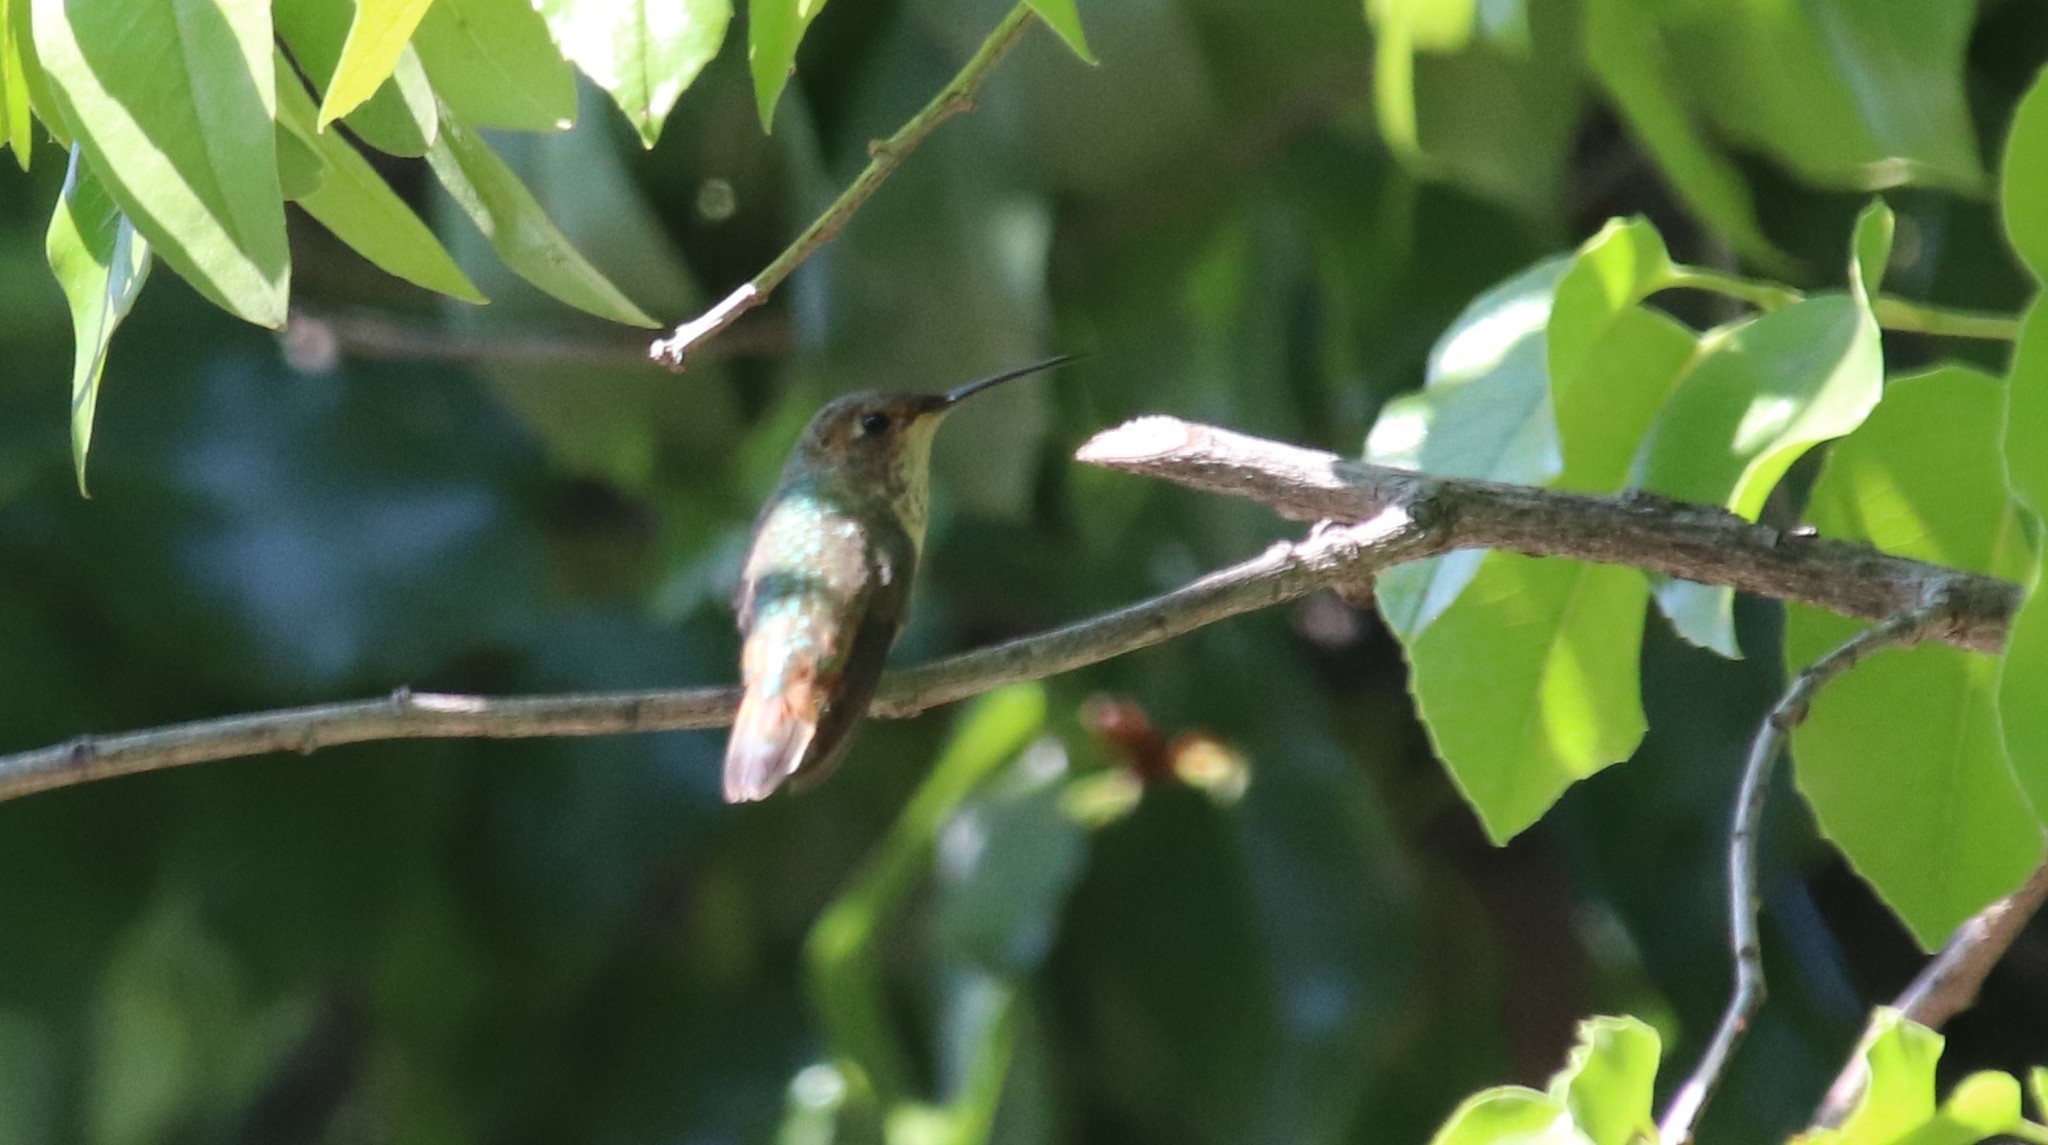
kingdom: Animalia
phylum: Chordata
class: Aves
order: Apodiformes
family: Trochilidae
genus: Selasphorus
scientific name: Selasphorus
